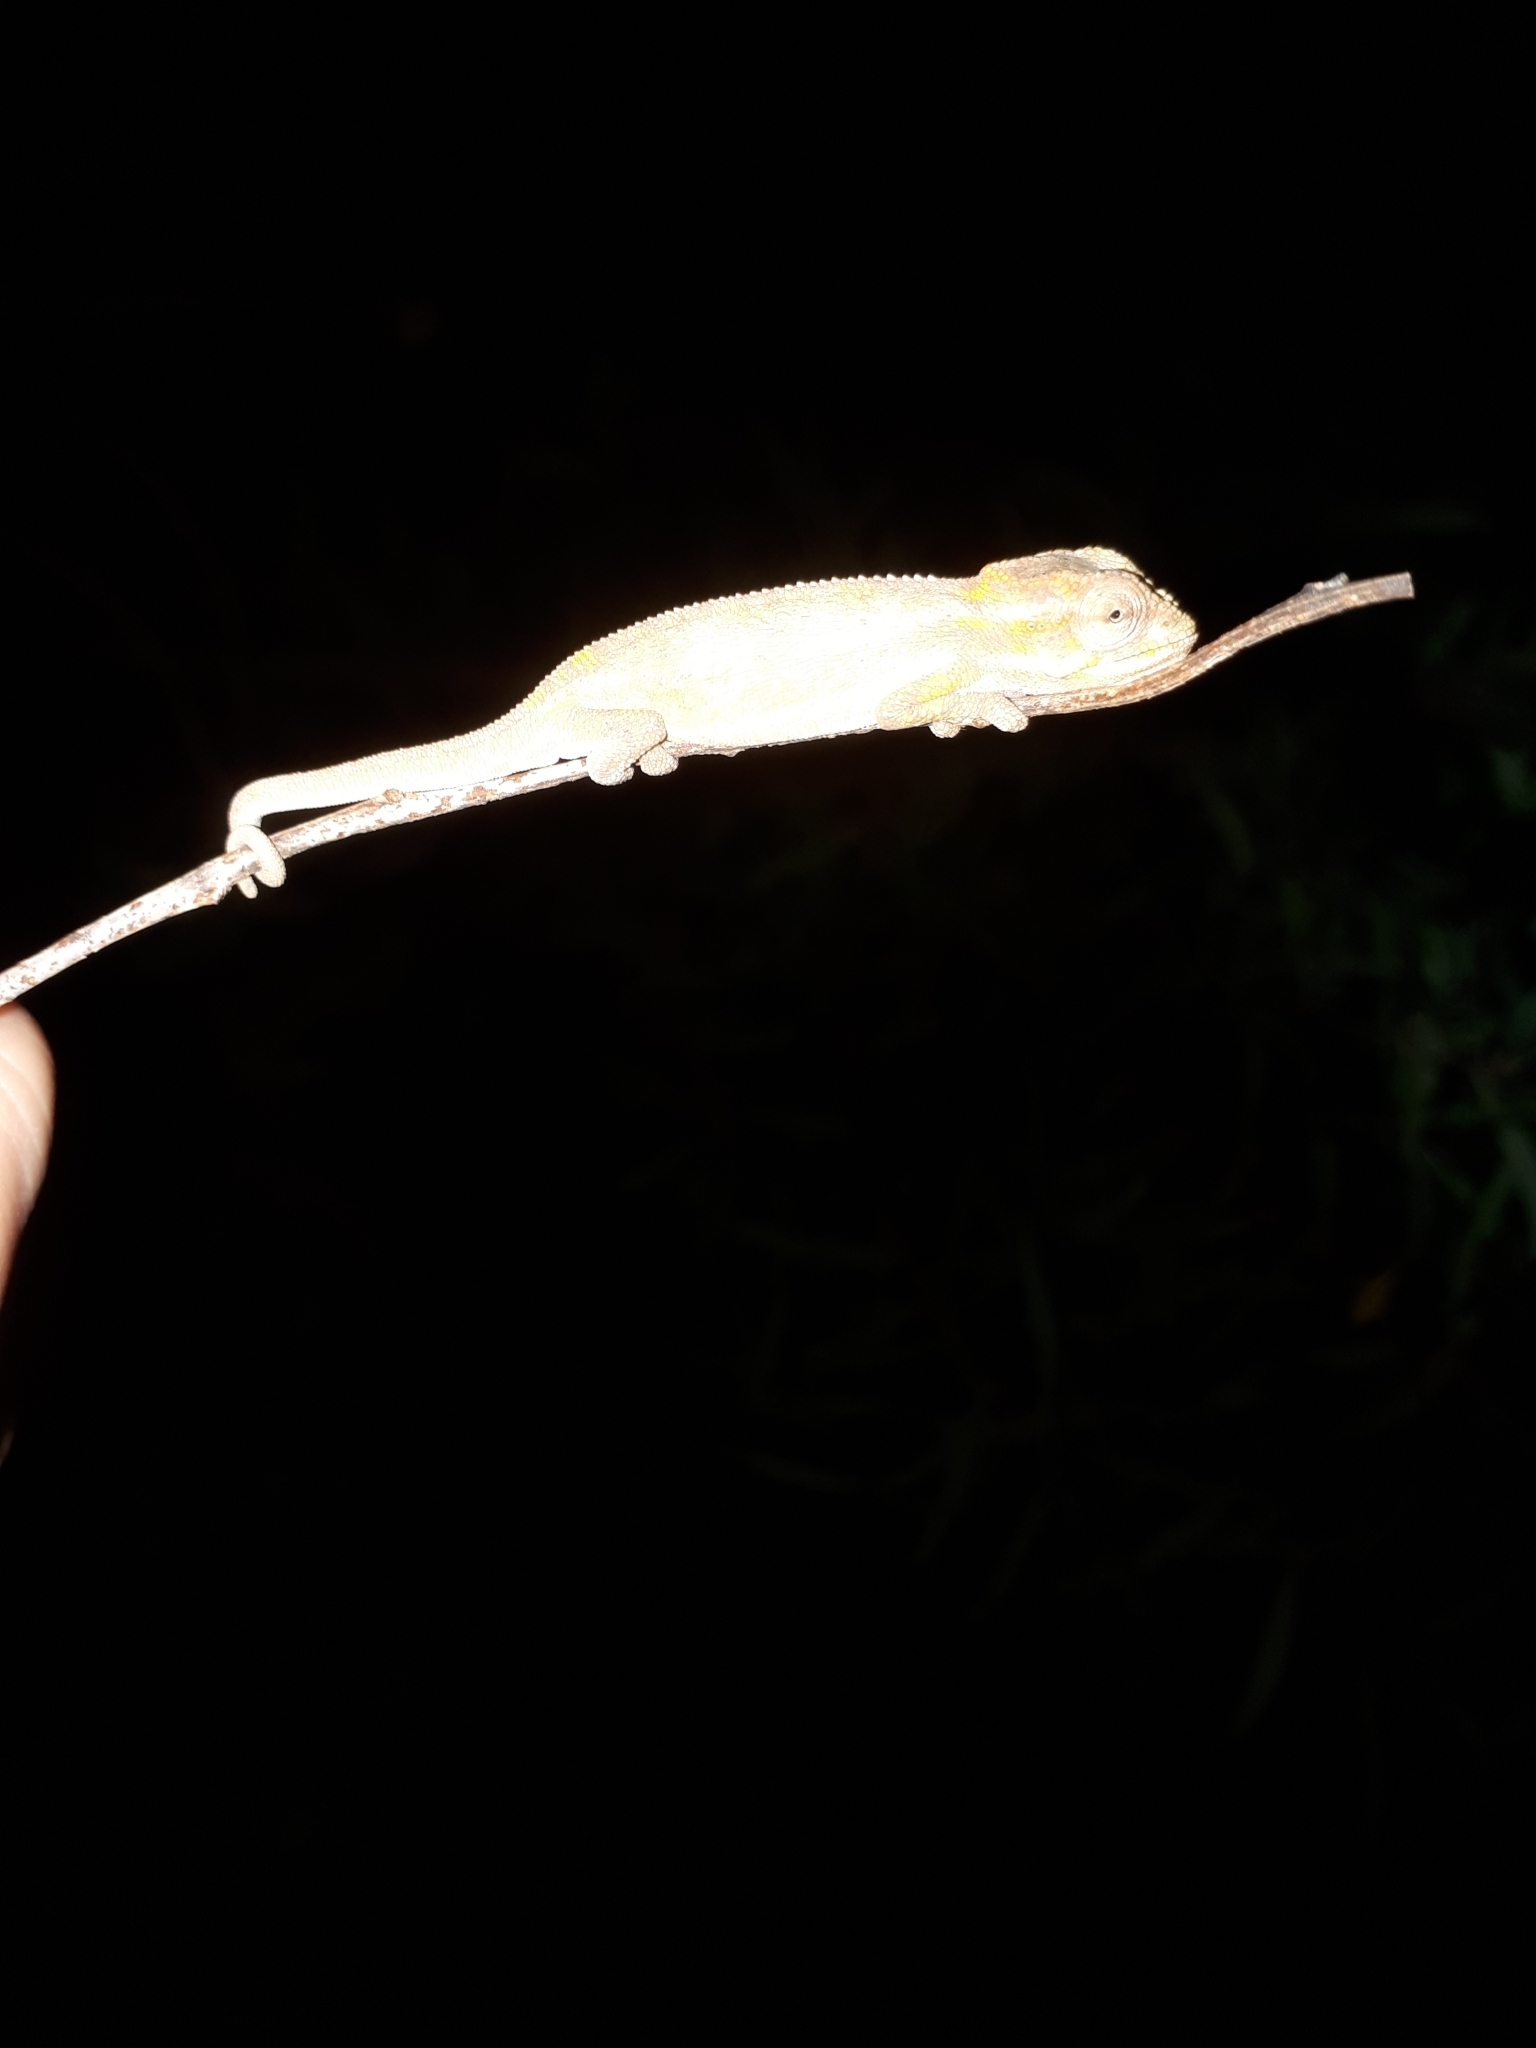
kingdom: Animalia
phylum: Chordata
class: Squamata
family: Chamaeleonidae
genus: Bradypodion
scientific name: Bradypodion pumilum
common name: Cape dwarf chameleon
